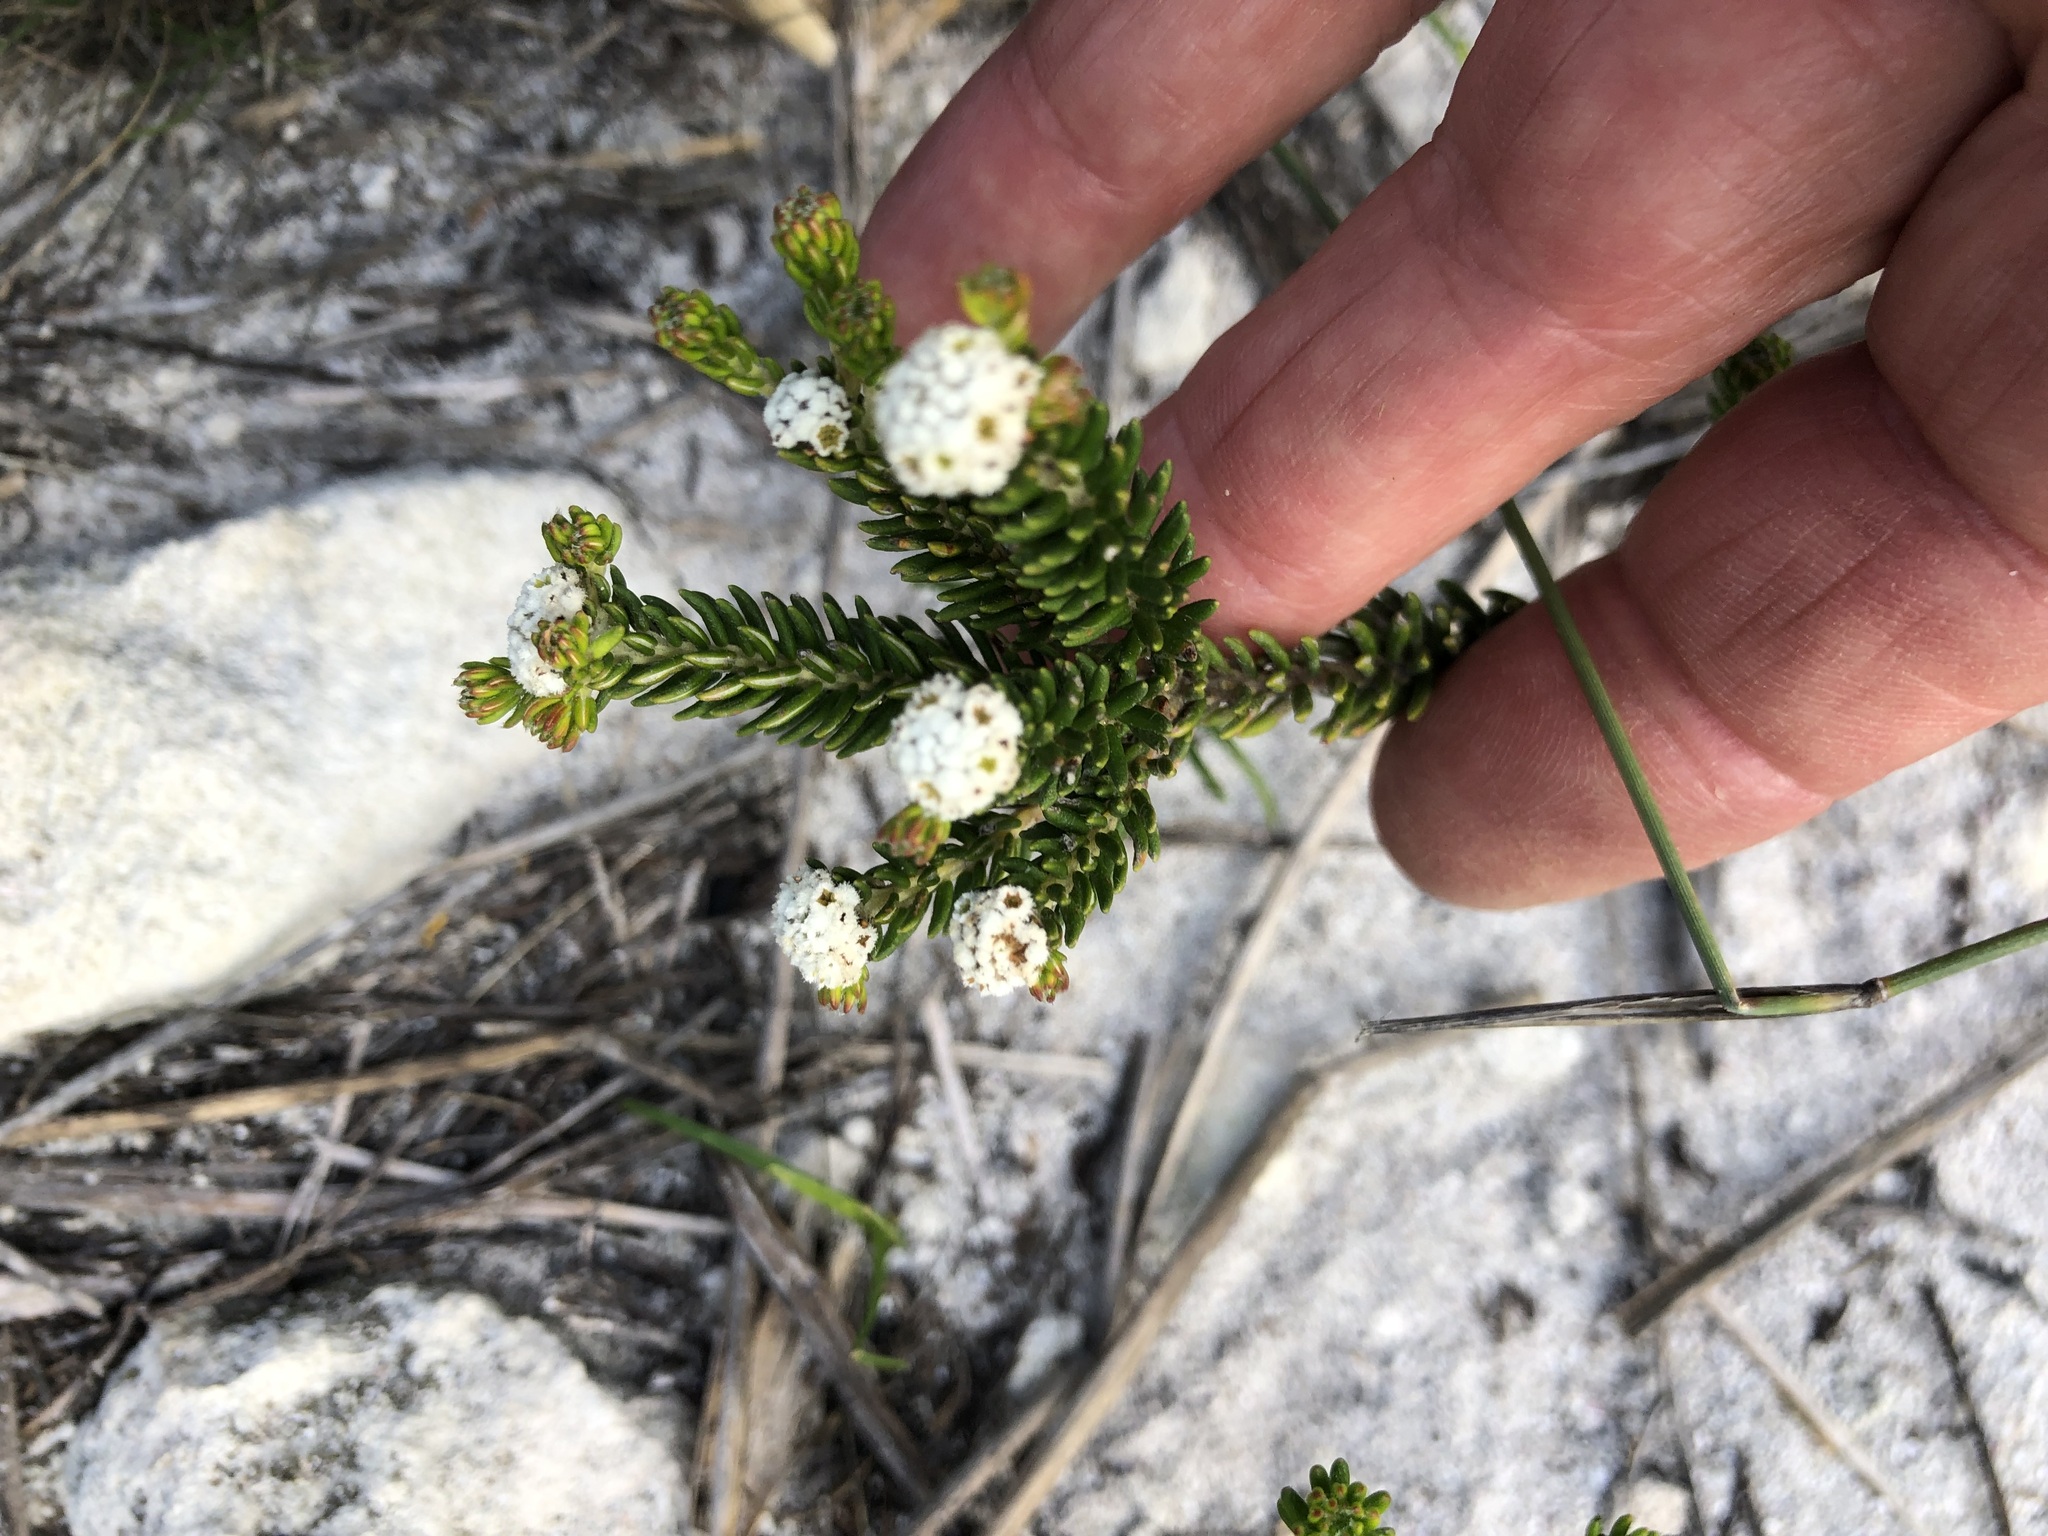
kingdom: Plantae
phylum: Tracheophyta
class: Magnoliopsida
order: Rosales
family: Rhamnaceae
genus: Phylica
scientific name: Phylica ericoides
